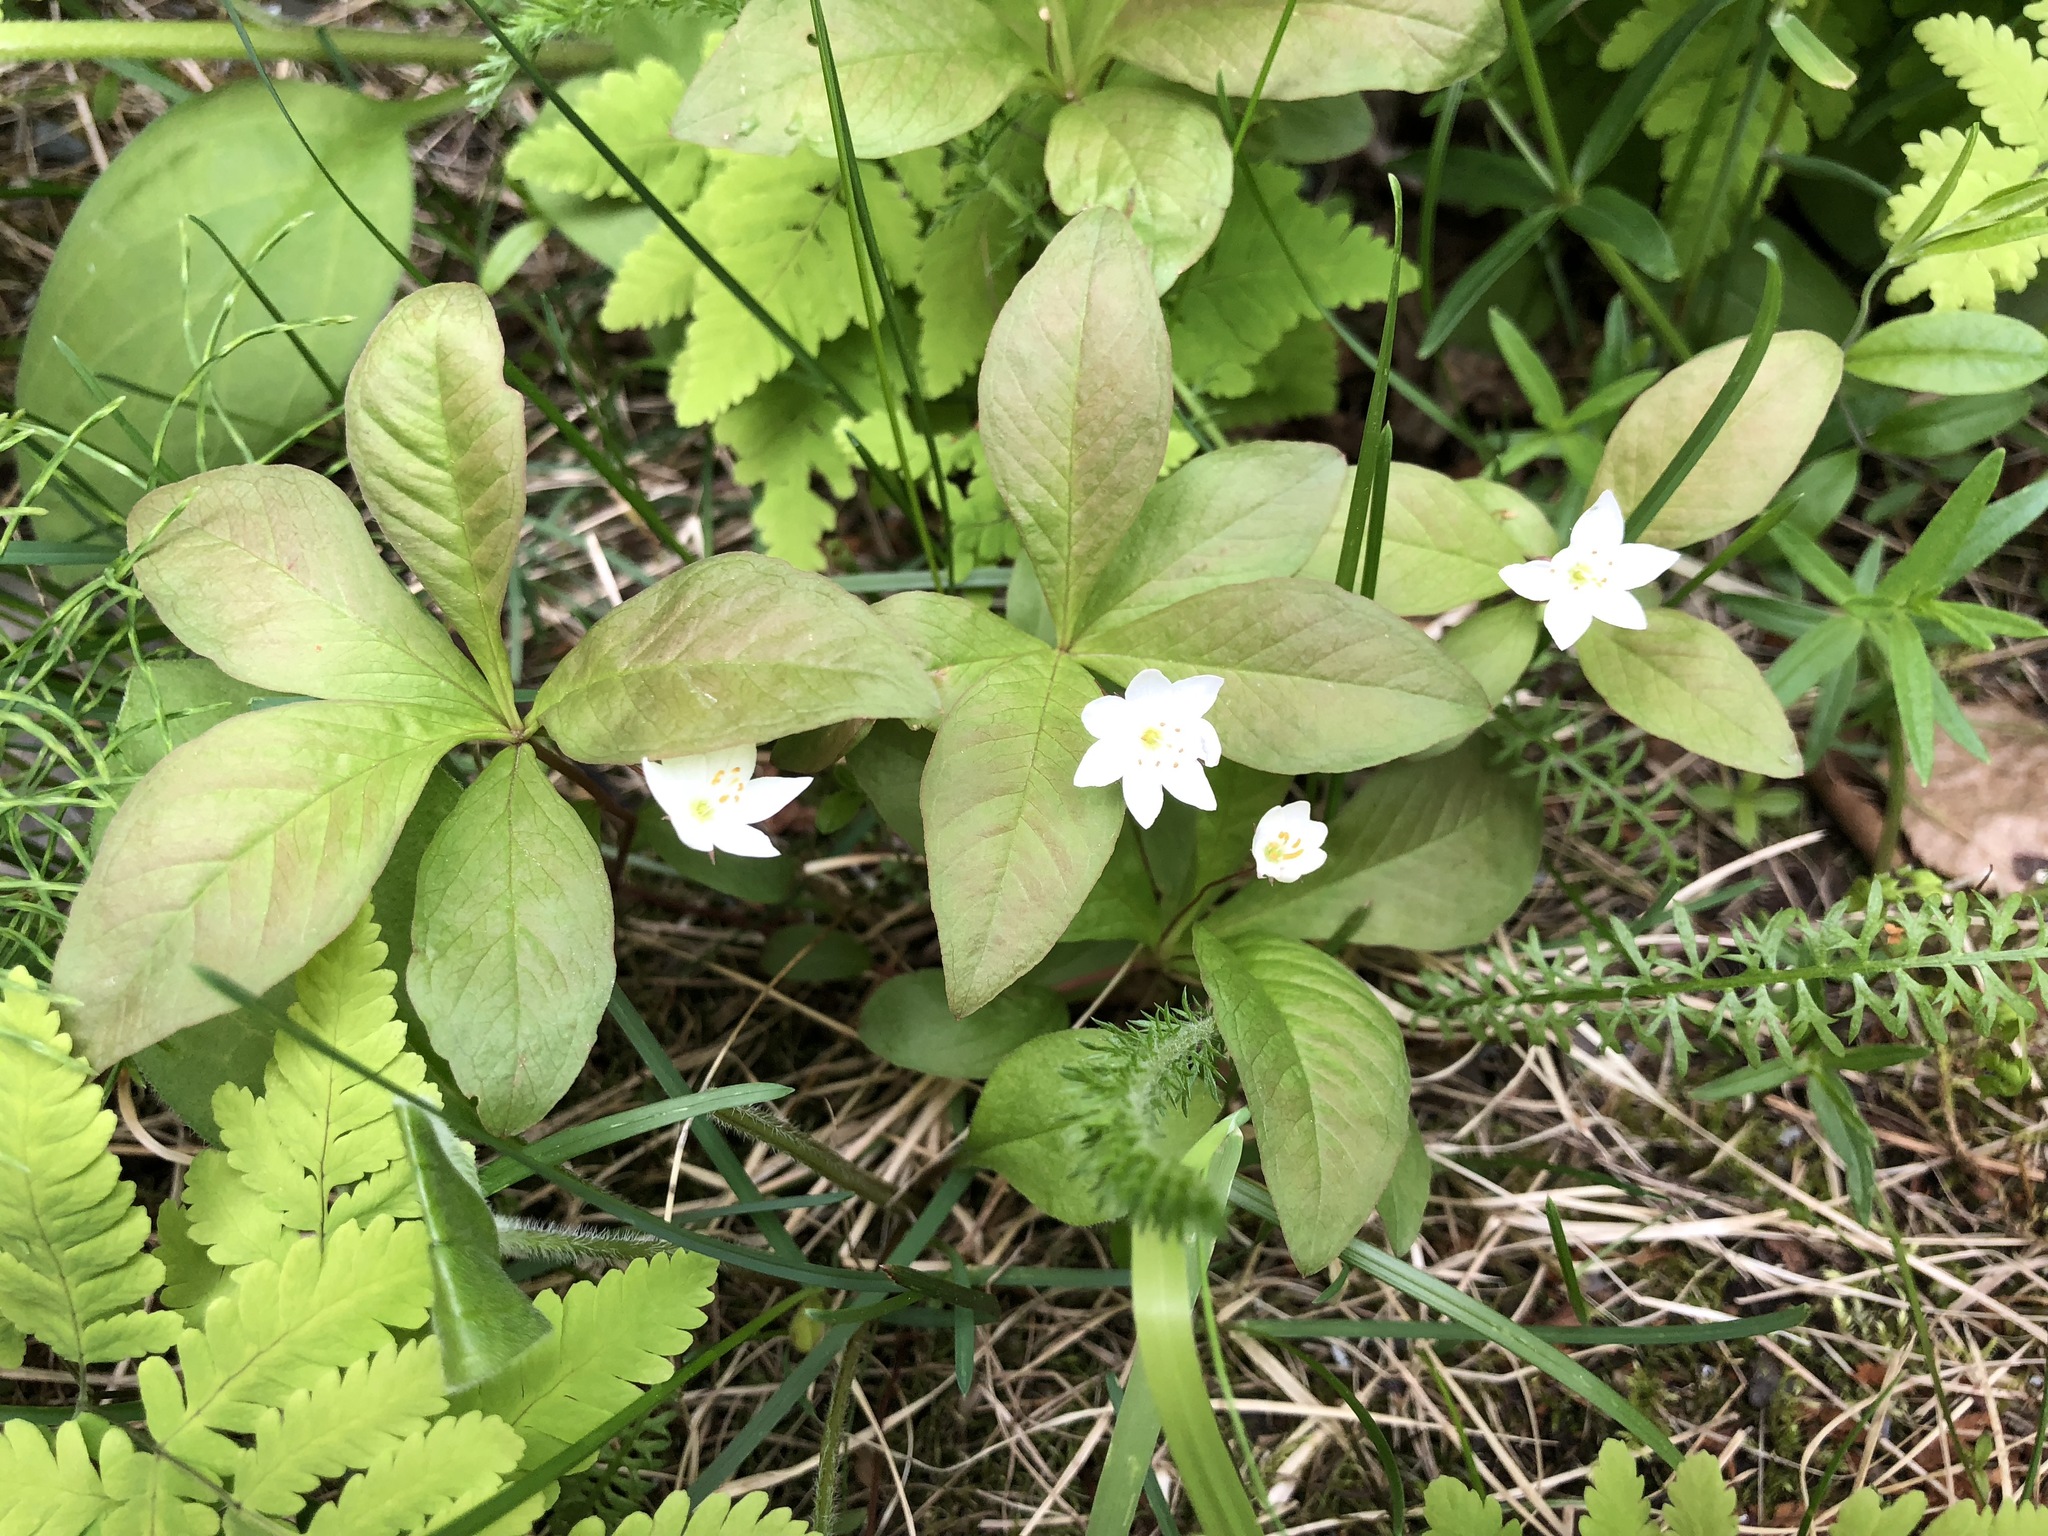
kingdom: Plantae
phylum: Tracheophyta
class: Magnoliopsida
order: Ericales
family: Primulaceae
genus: Lysimachia
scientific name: Lysimachia europaea
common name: Arctic starflower
